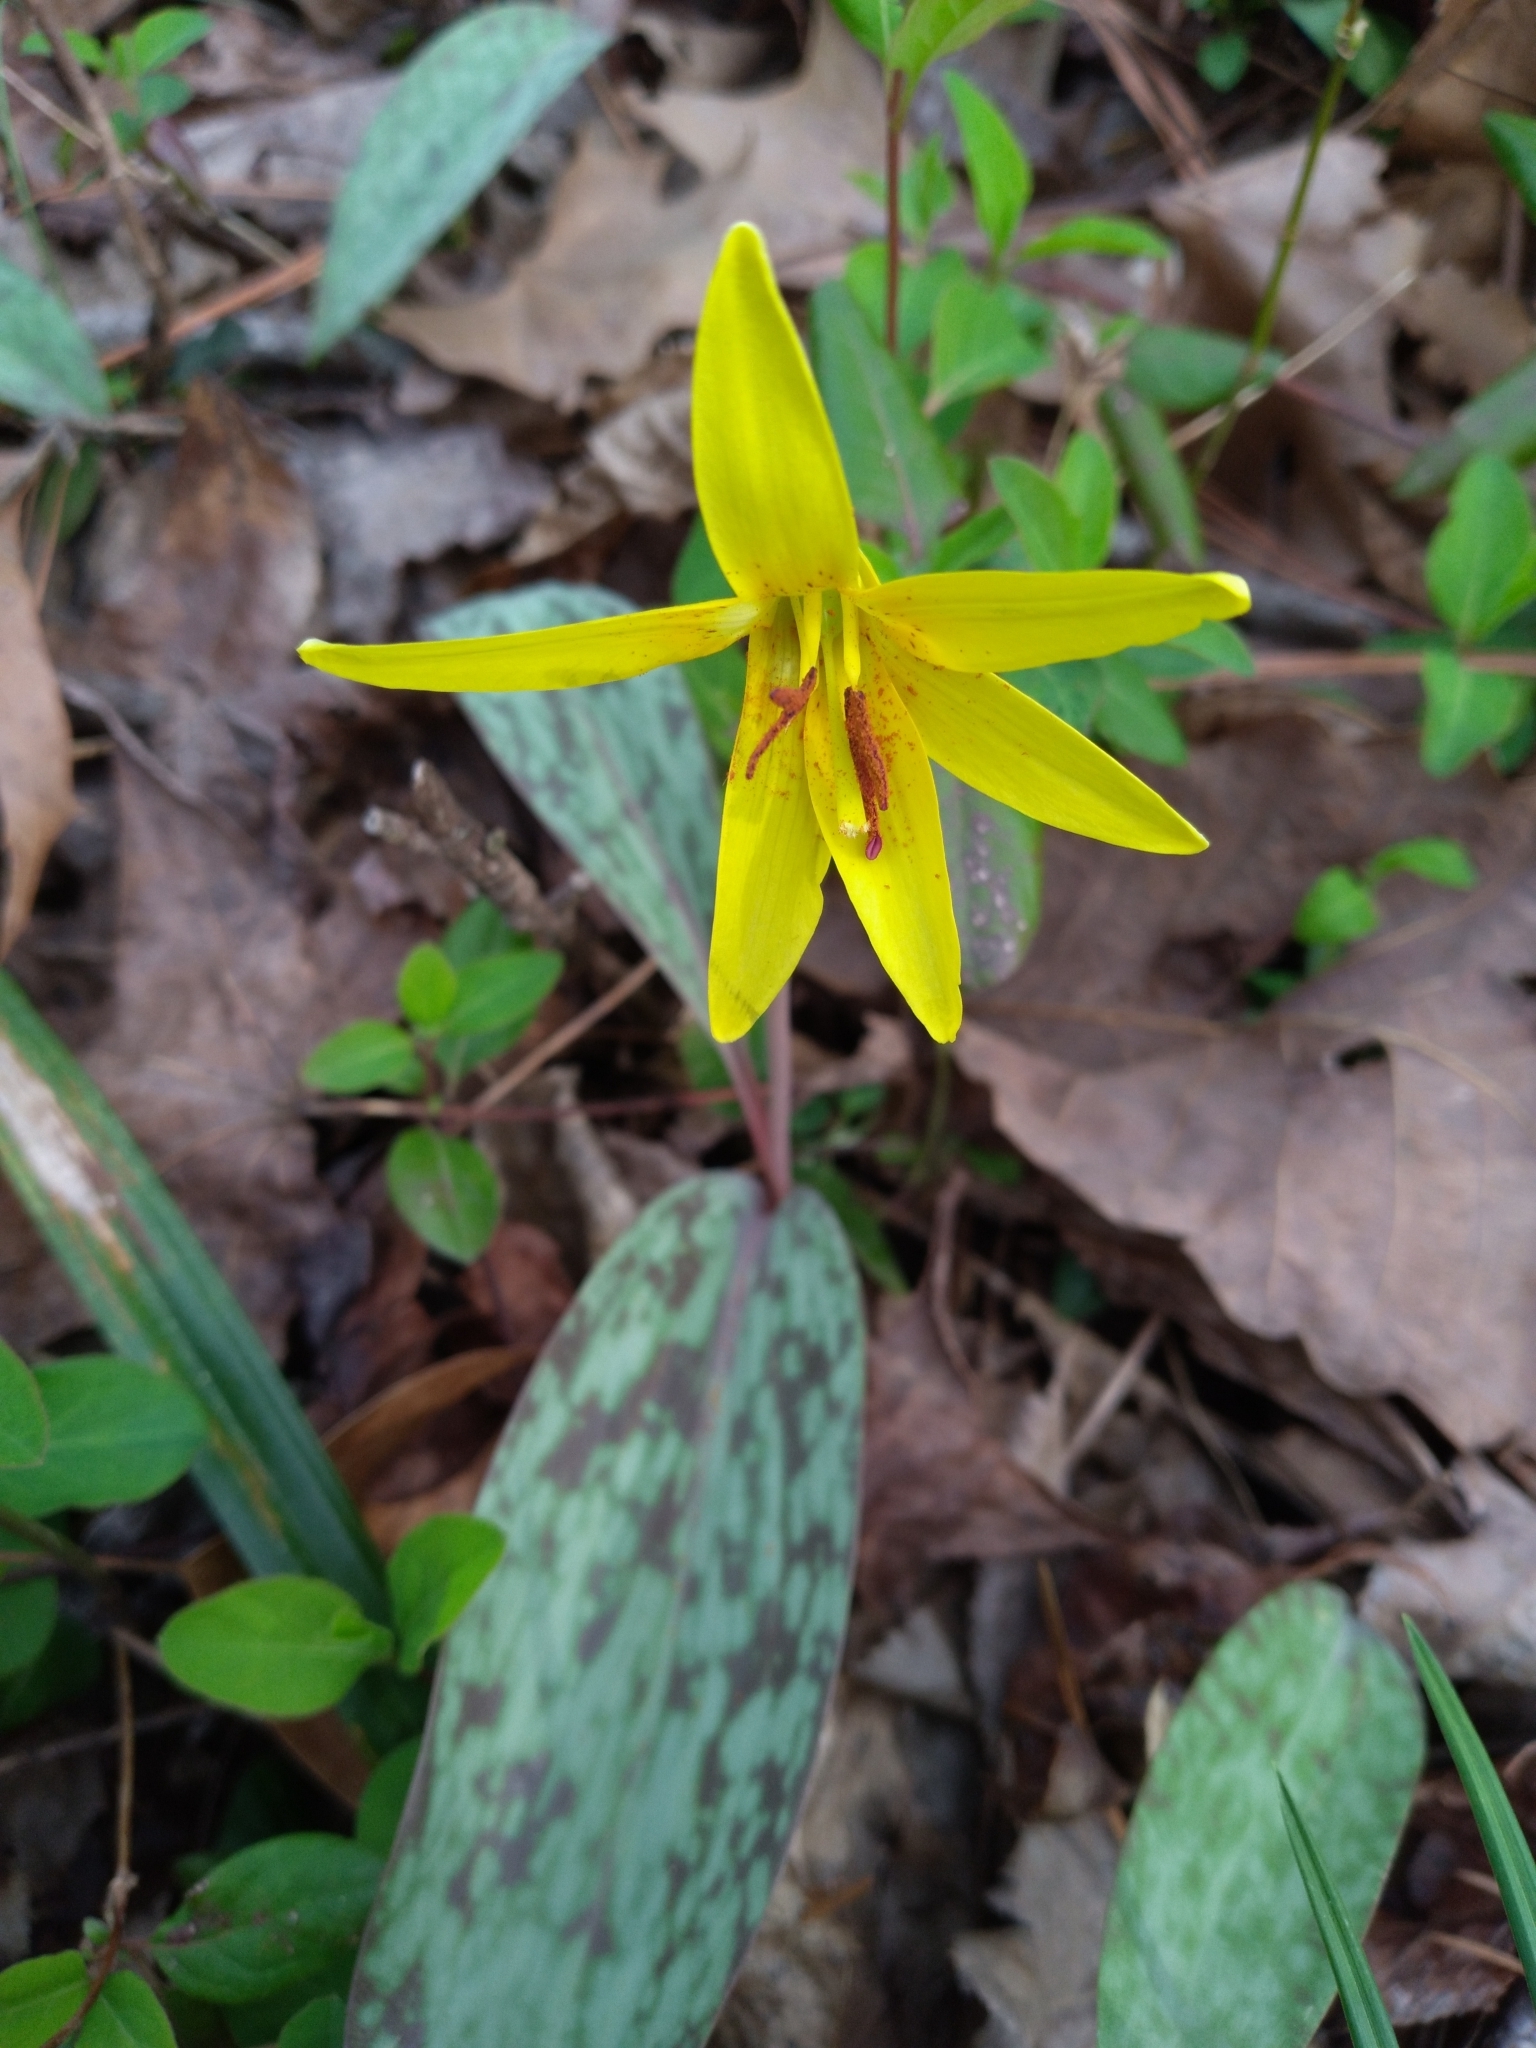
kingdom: Plantae
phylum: Tracheophyta
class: Liliopsida
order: Liliales
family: Liliaceae
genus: Erythronium
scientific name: Erythronium americanum
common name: Yellow adder's-tongue
